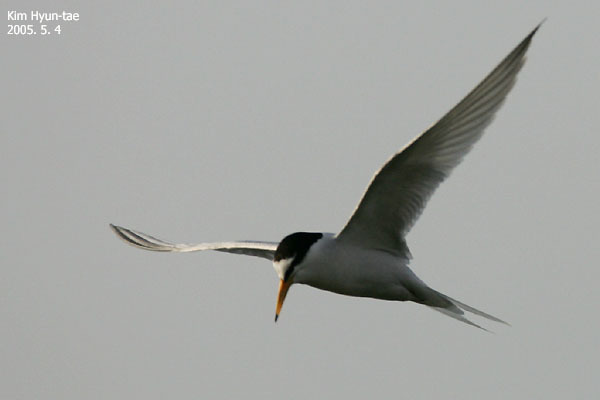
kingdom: Animalia
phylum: Chordata
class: Aves
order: Charadriiformes
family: Laridae
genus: Sternula
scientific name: Sternula albifrons
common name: Little tern
